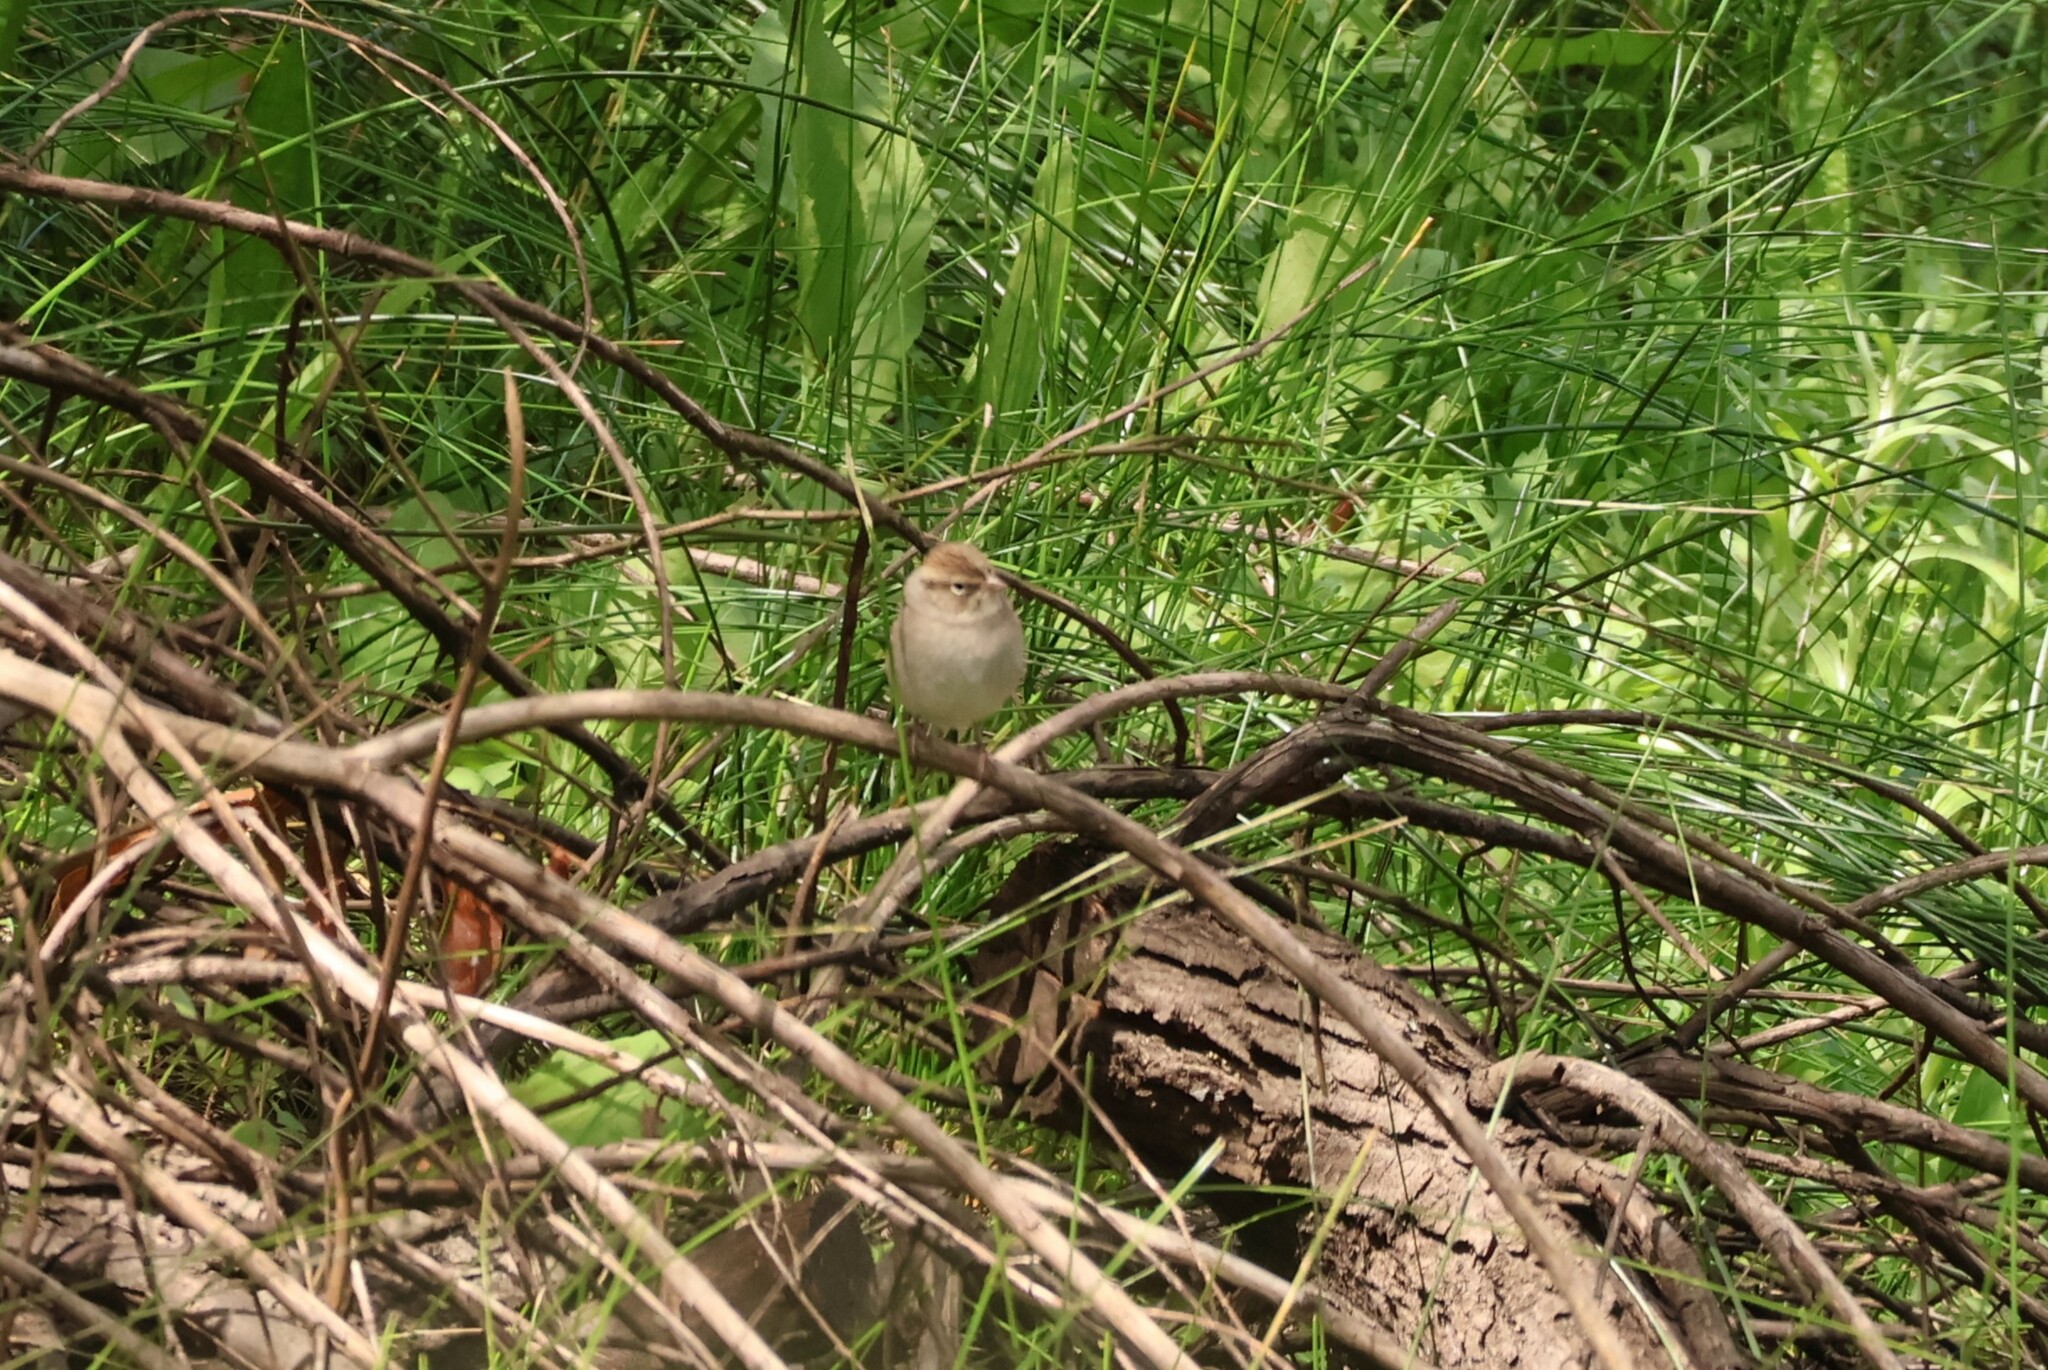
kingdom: Animalia
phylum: Chordata
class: Aves
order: Passeriformes
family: Passerellidae
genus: Spizella
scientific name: Spizella passerina
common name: Chipping sparrow
